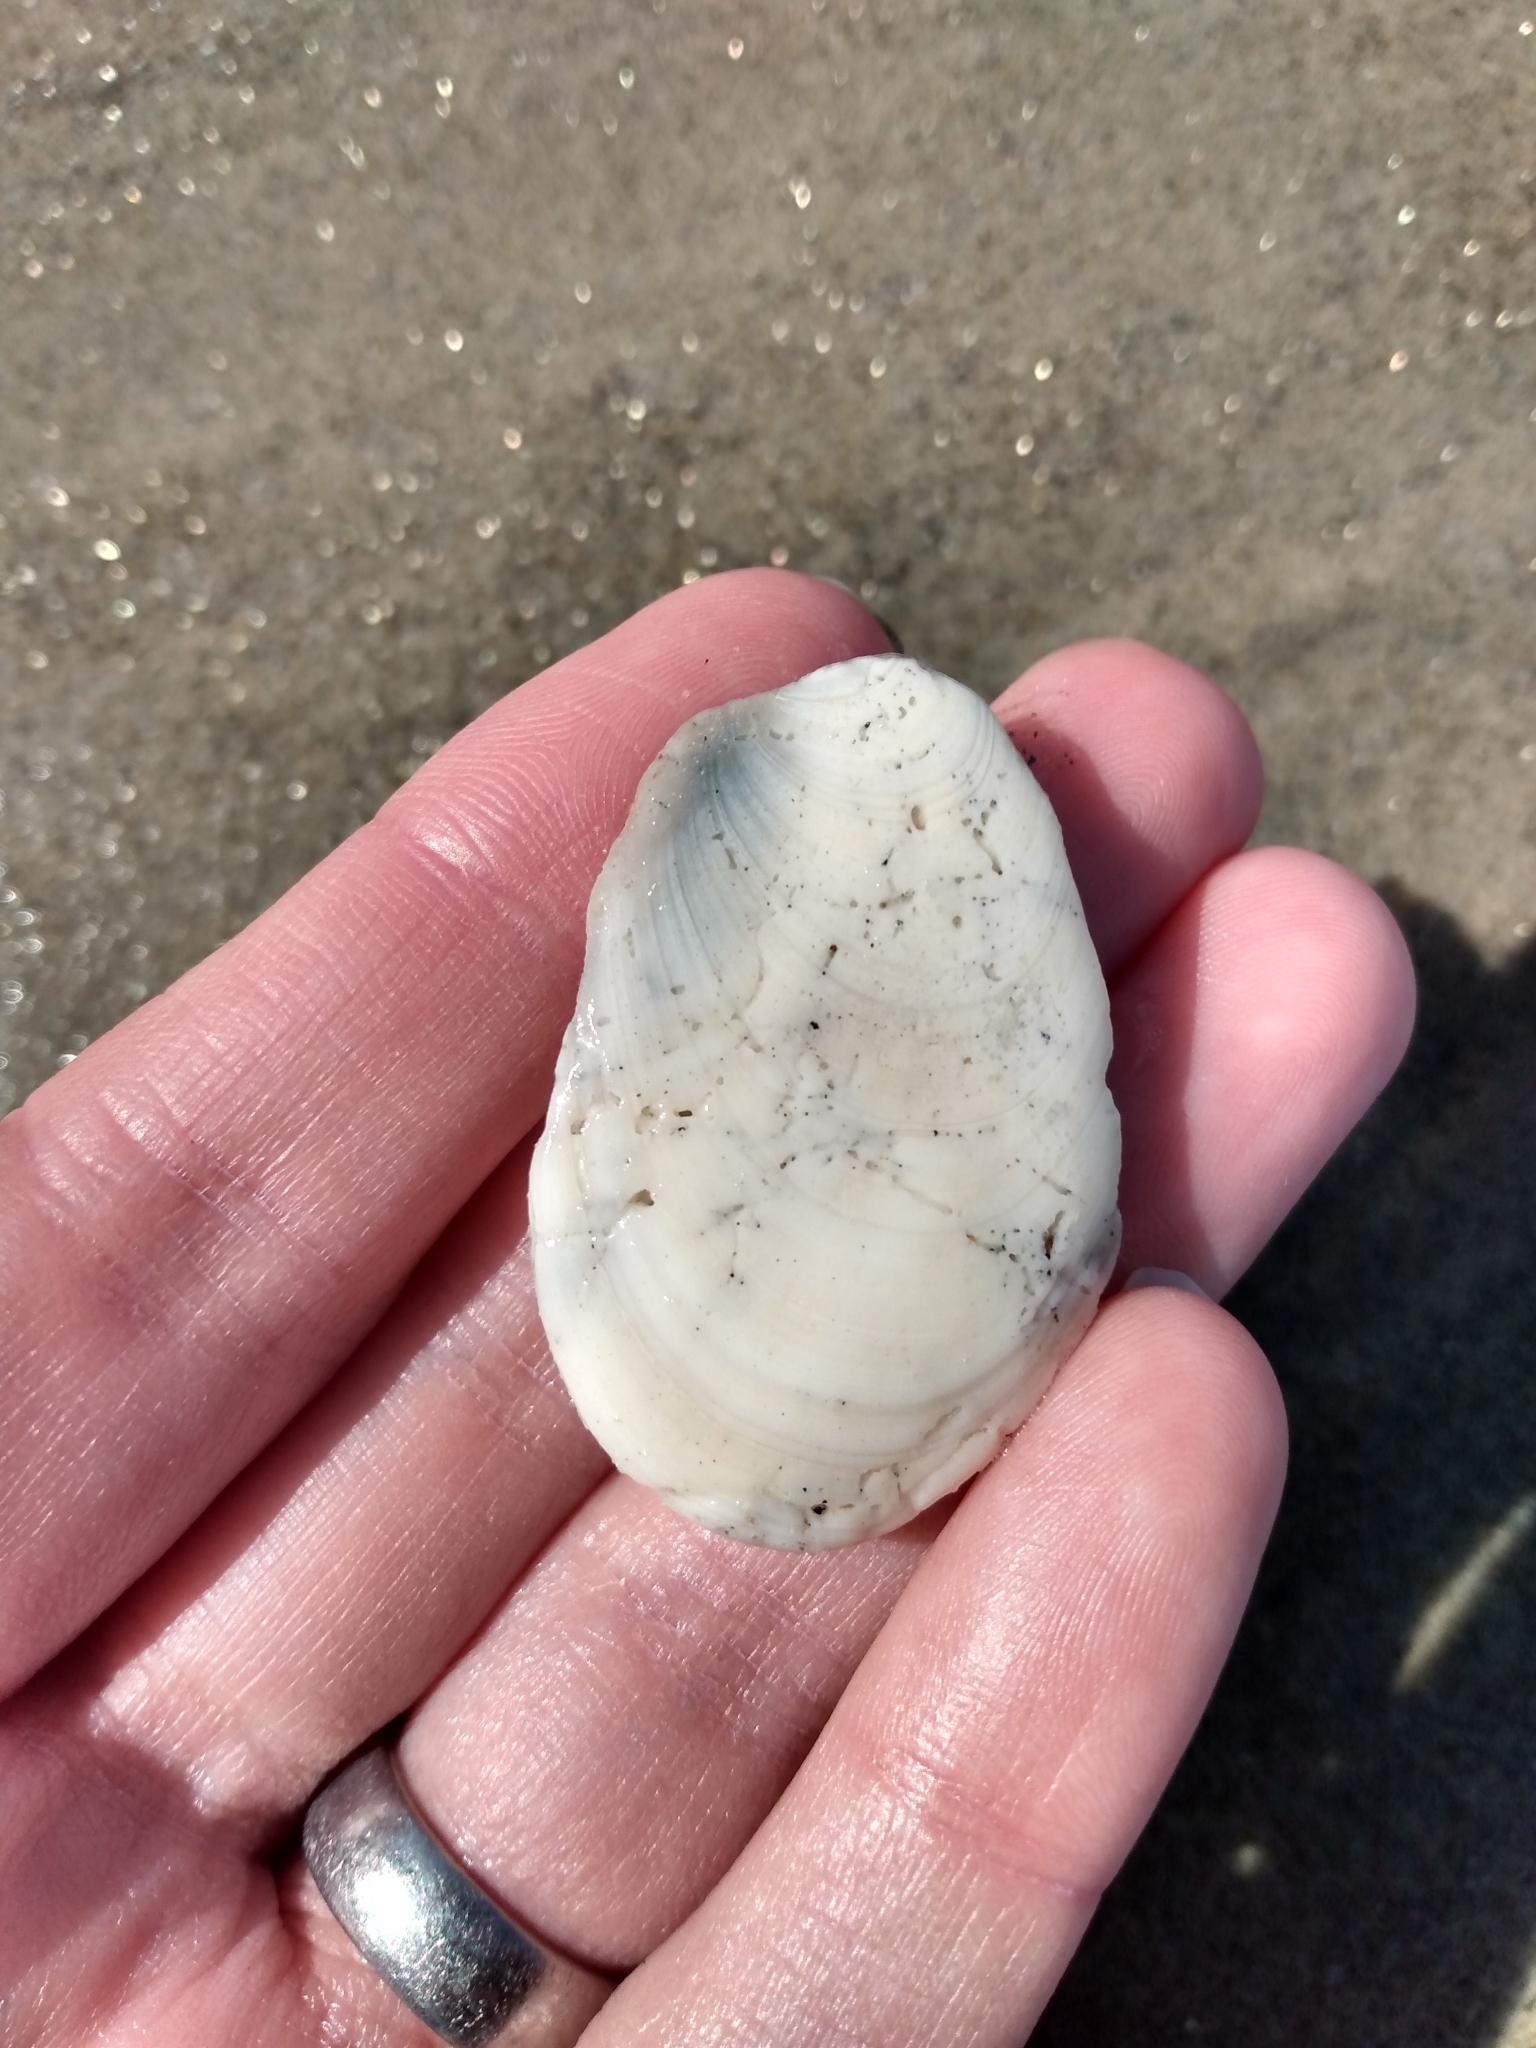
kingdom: Animalia
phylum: Mollusca
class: Gastropoda
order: Trochida
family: Turbinidae
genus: Megastraea
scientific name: Megastraea undosa
